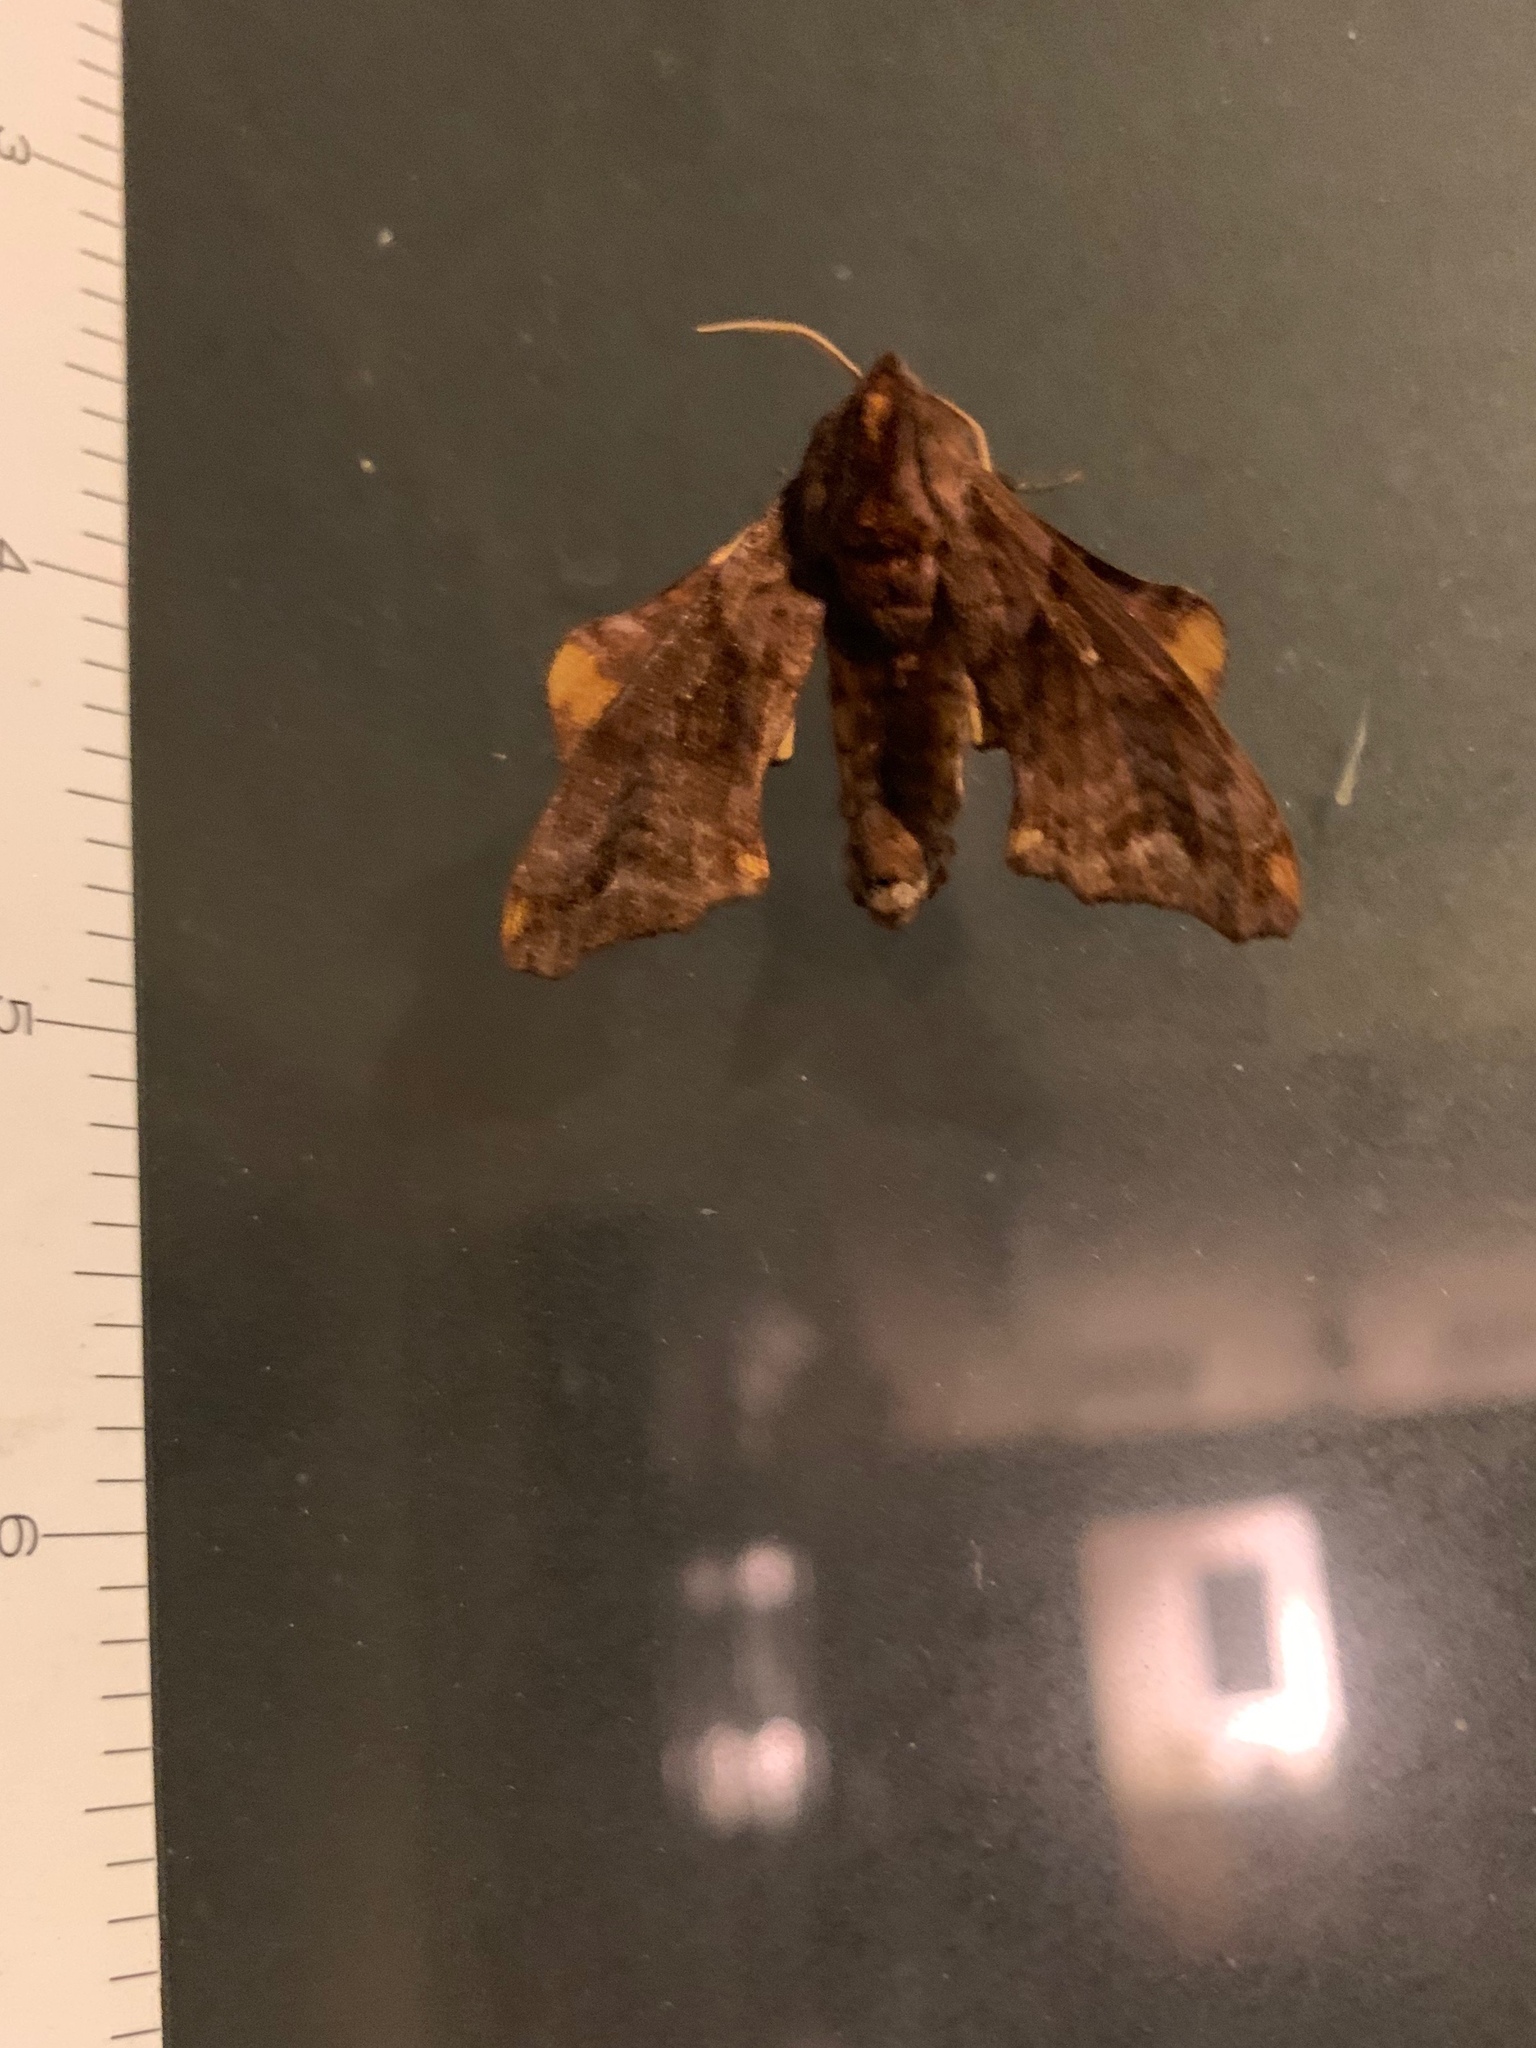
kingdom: Animalia
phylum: Arthropoda
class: Insecta
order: Lepidoptera
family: Sphingidae
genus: Paonias
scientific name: Paonias myops
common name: Small-eyed sphinx
